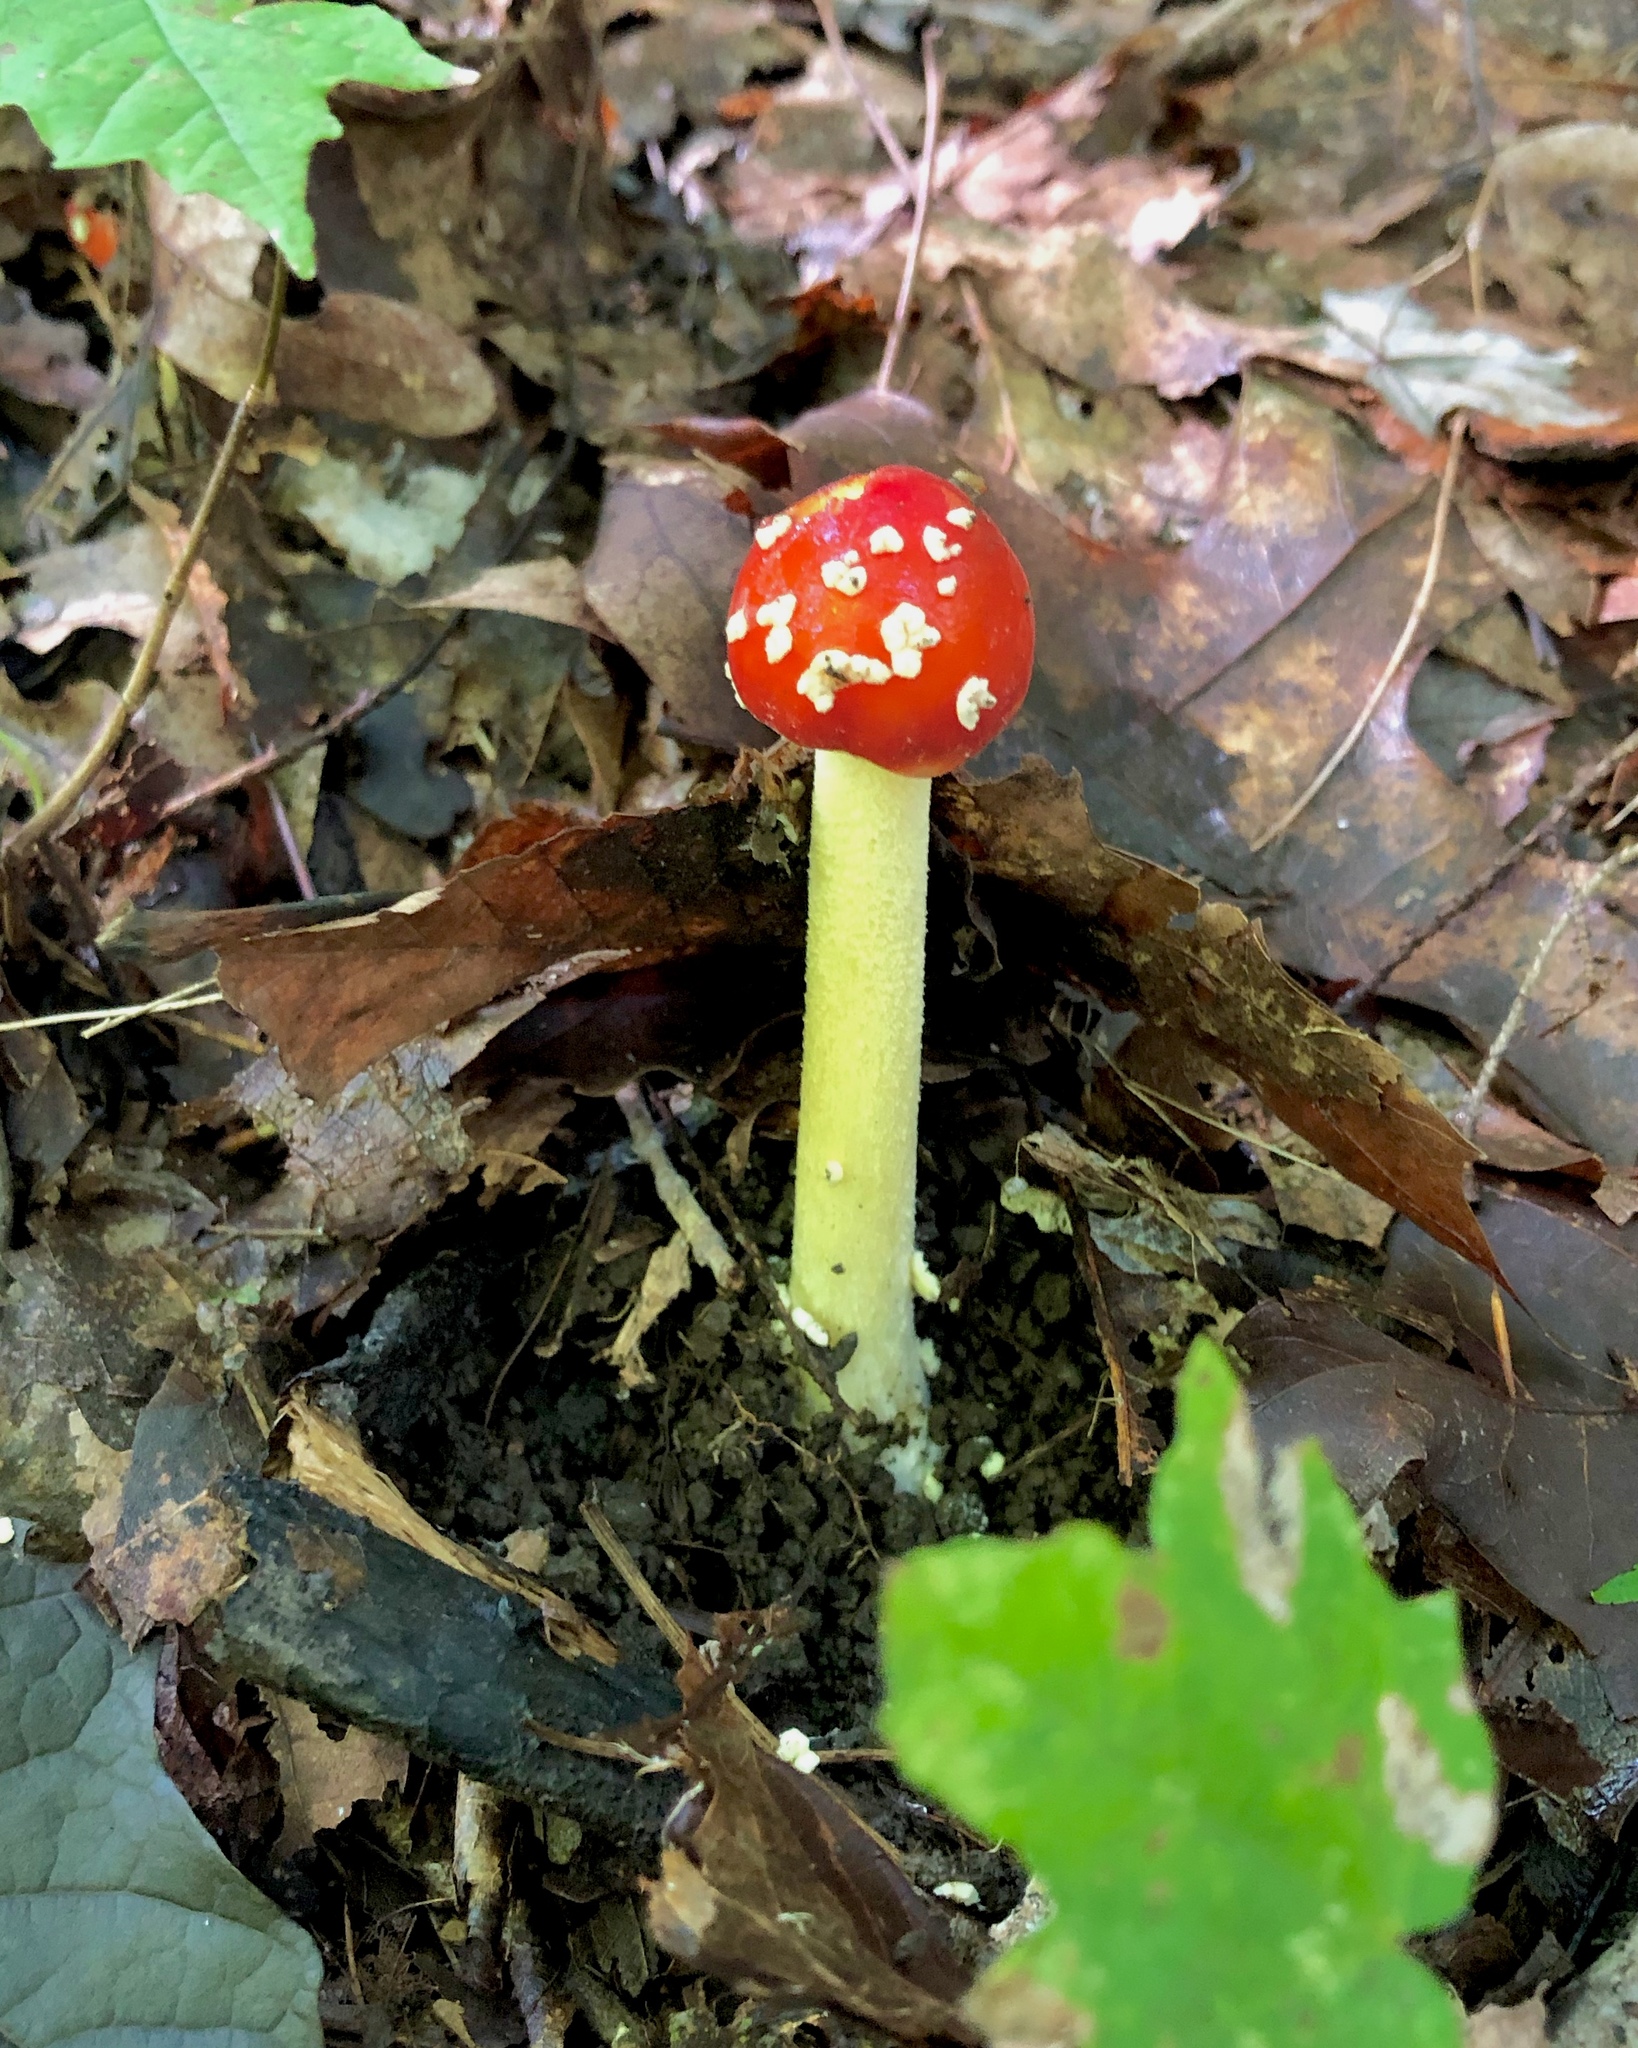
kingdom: Fungi
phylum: Basidiomycota
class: Agaricomycetes
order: Agaricales
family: Amanitaceae
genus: Amanita
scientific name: Amanita parcivolvata
